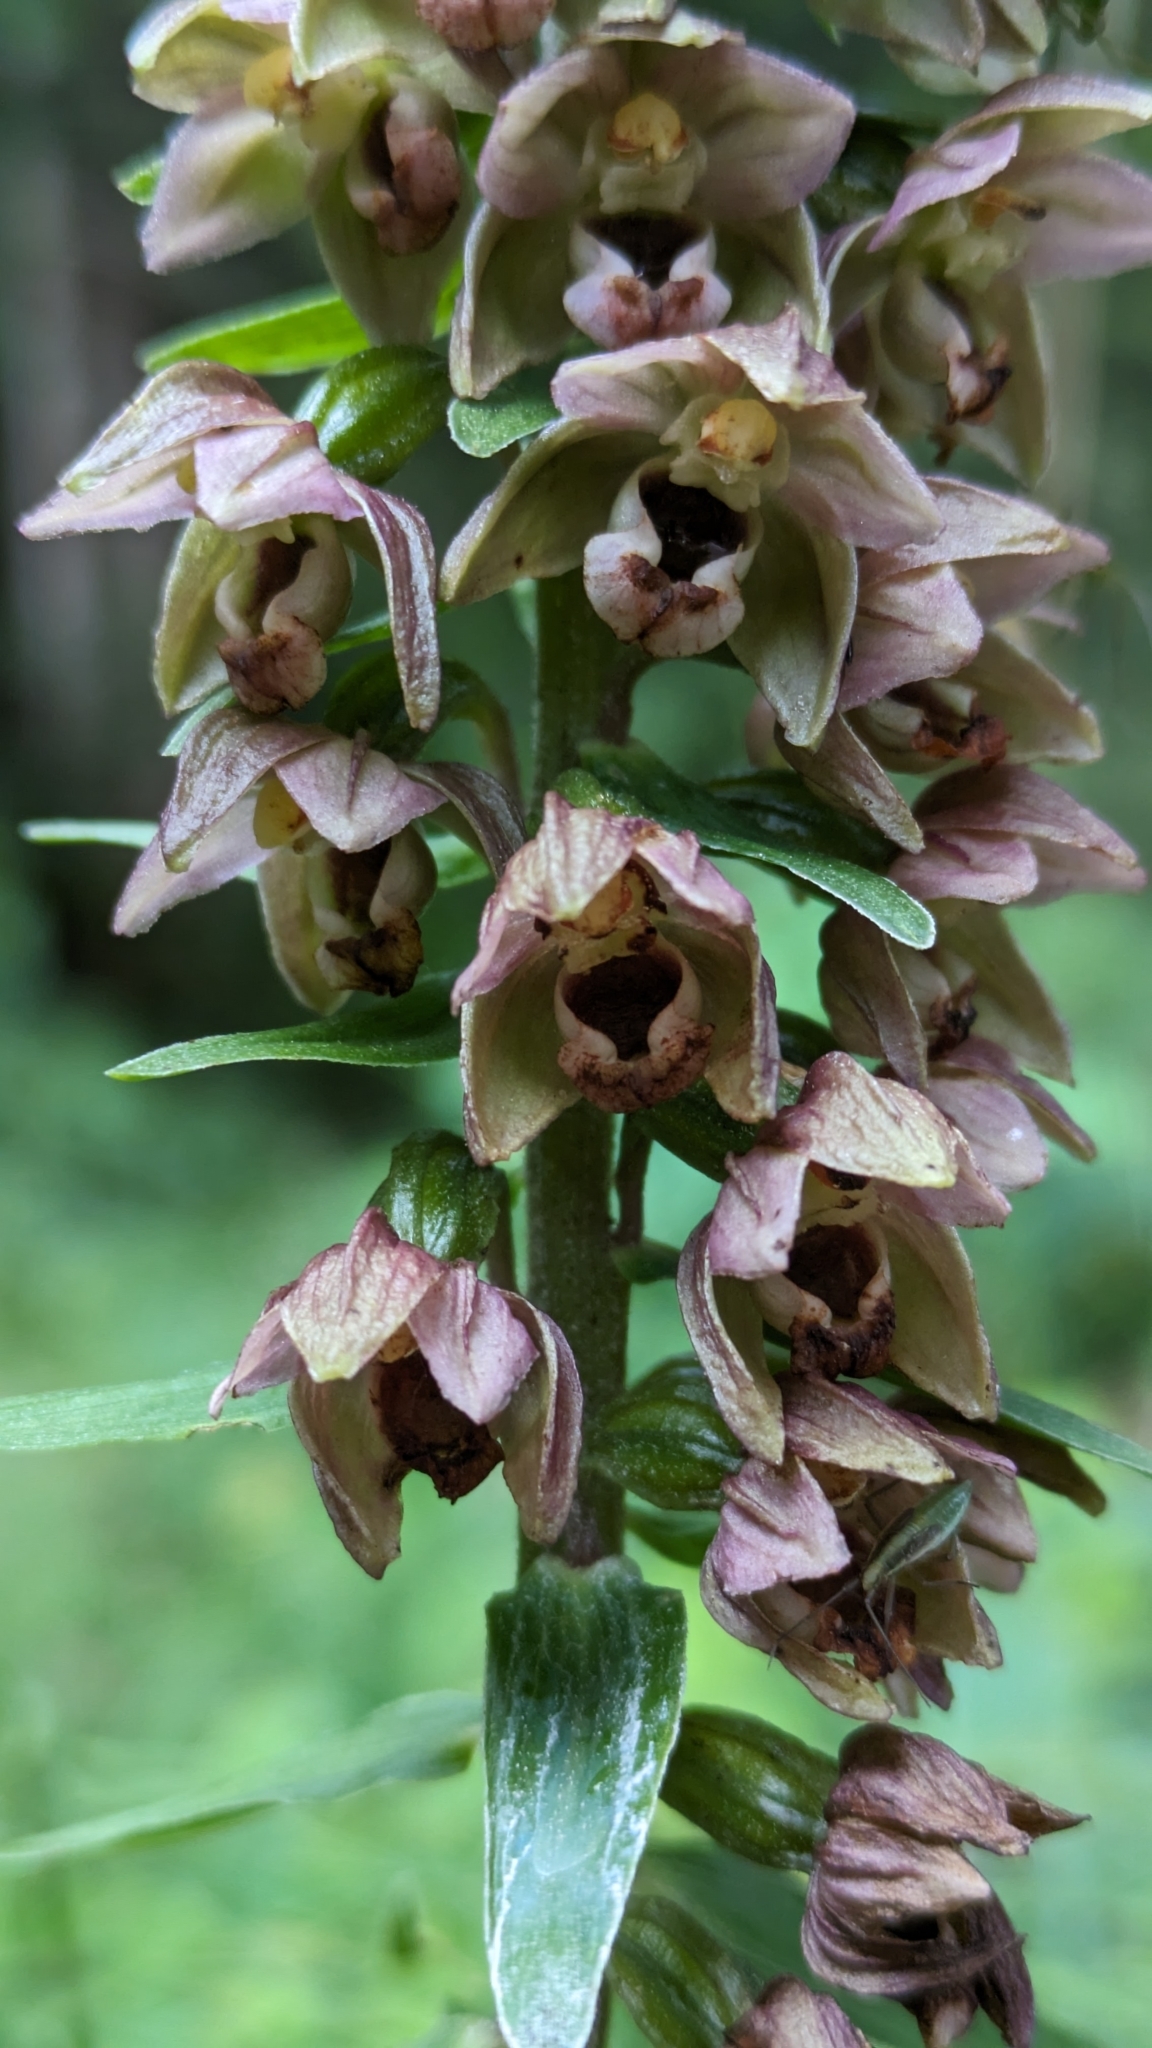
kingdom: Plantae
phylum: Tracheophyta
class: Liliopsida
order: Asparagales
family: Orchidaceae
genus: Epipactis
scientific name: Epipactis helleborine
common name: Broad-leaved helleborine
